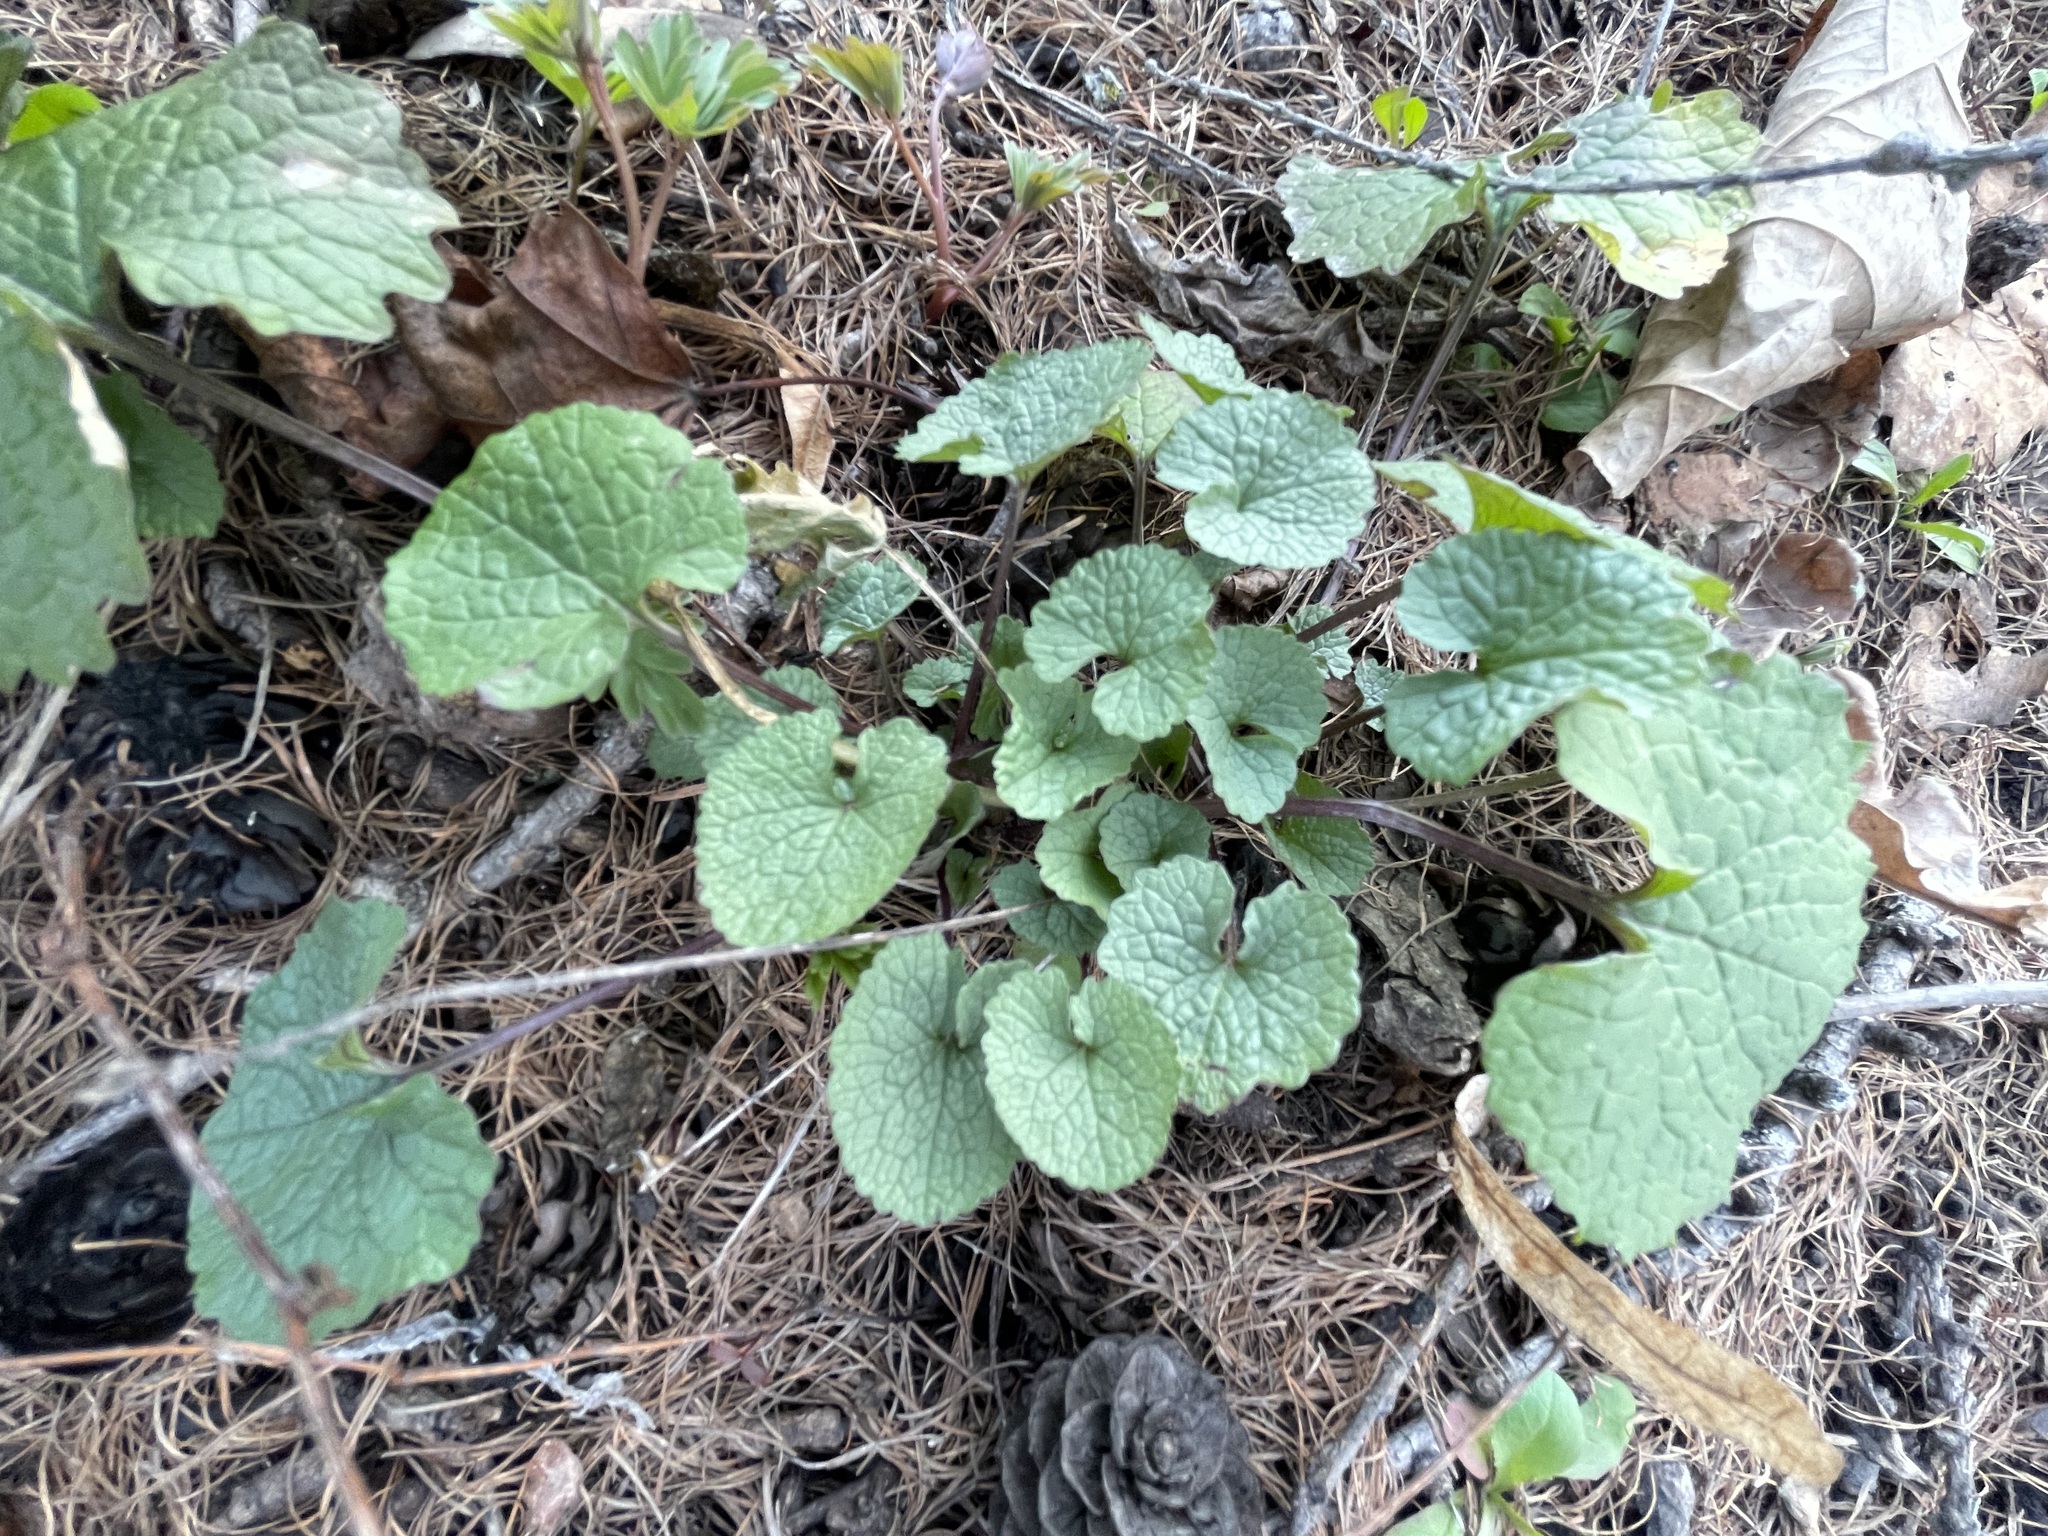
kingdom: Plantae
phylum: Tracheophyta
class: Magnoliopsida
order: Brassicales
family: Brassicaceae
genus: Alliaria
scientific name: Alliaria petiolata
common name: Garlic mustard
